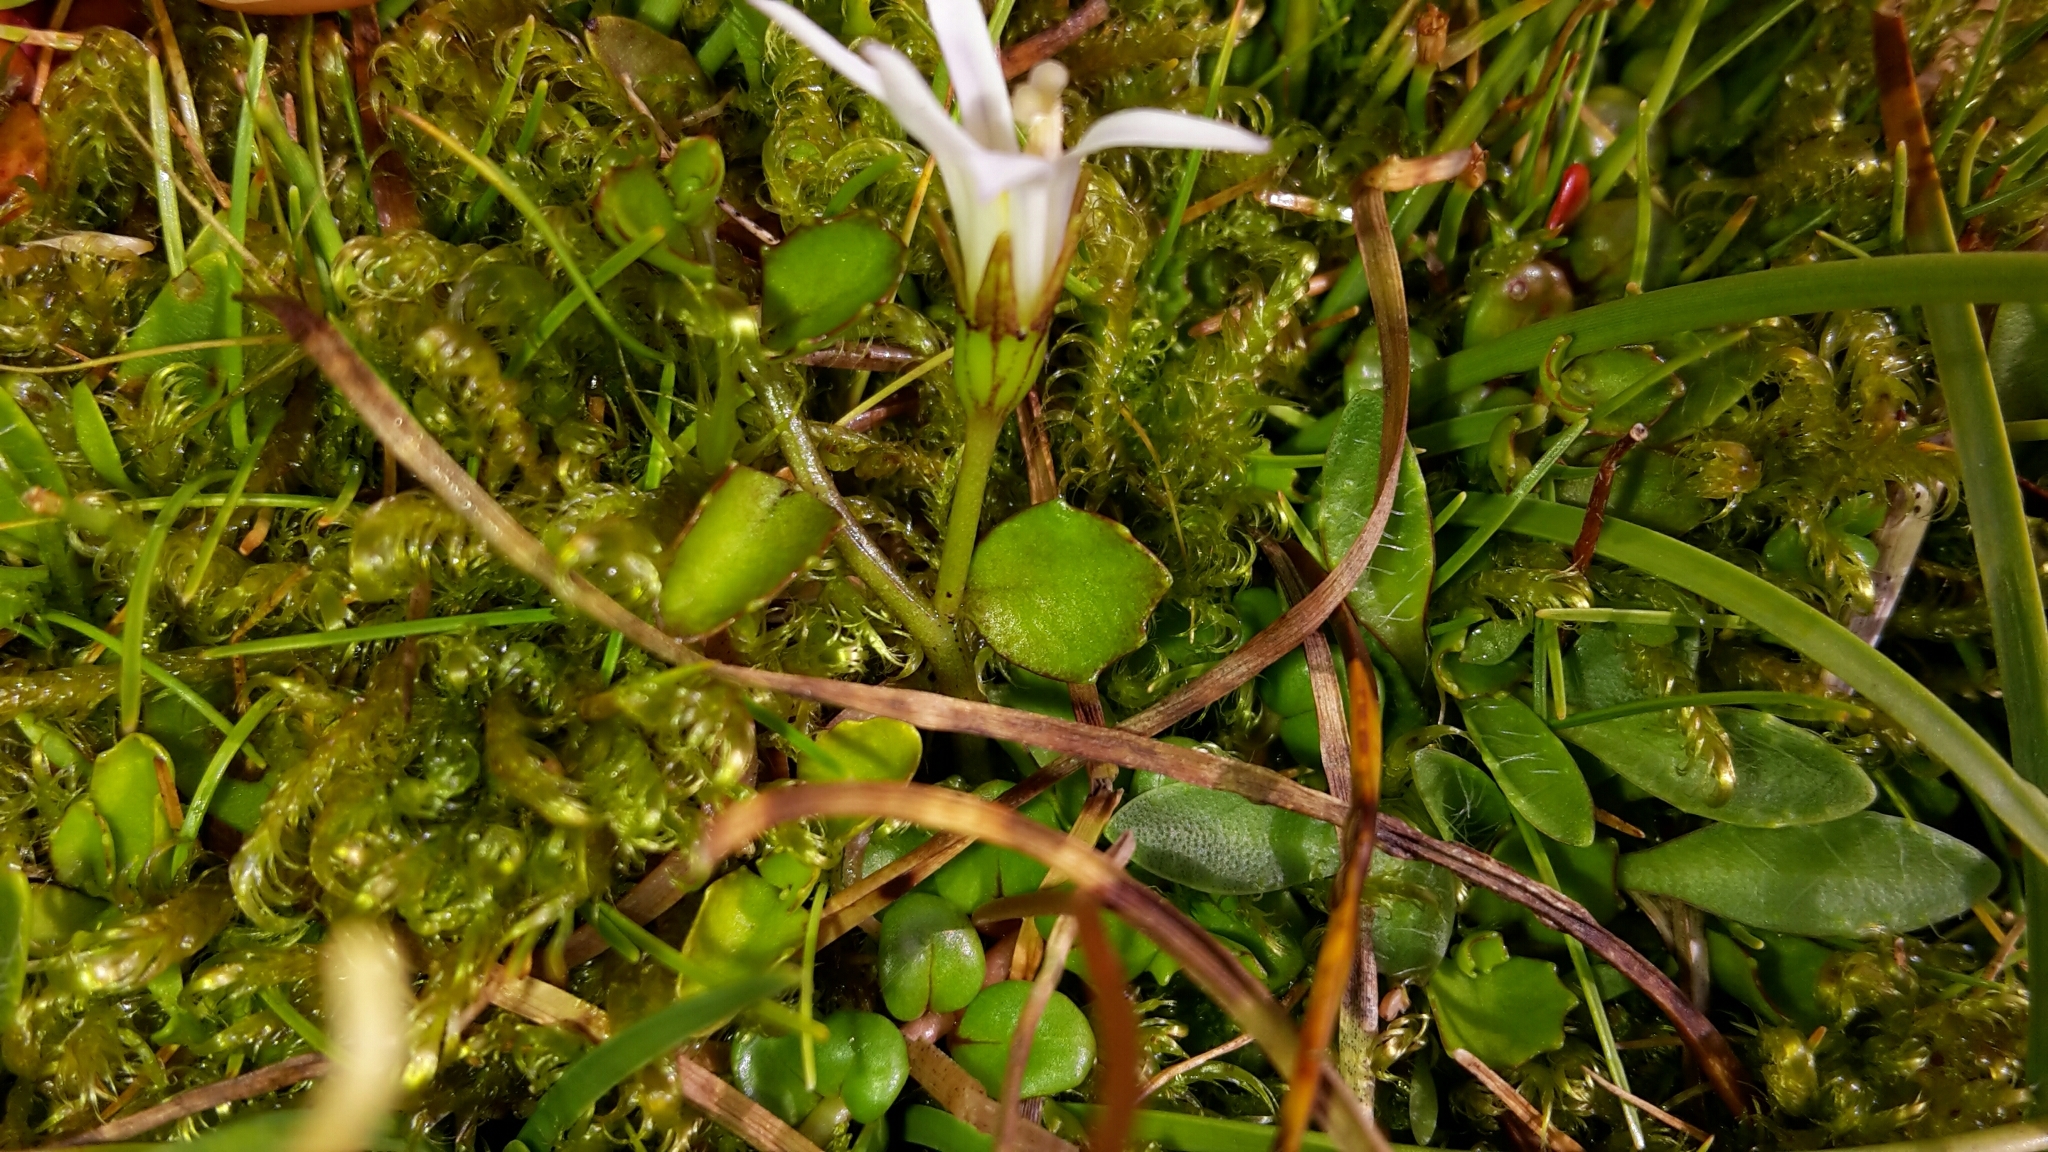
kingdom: Plantae
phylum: Tracheophyta
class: Magnoliopsida
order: Asterales
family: Campanulaceae
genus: Lobelia
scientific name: Lobelia angulata
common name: Lawn lobelia
